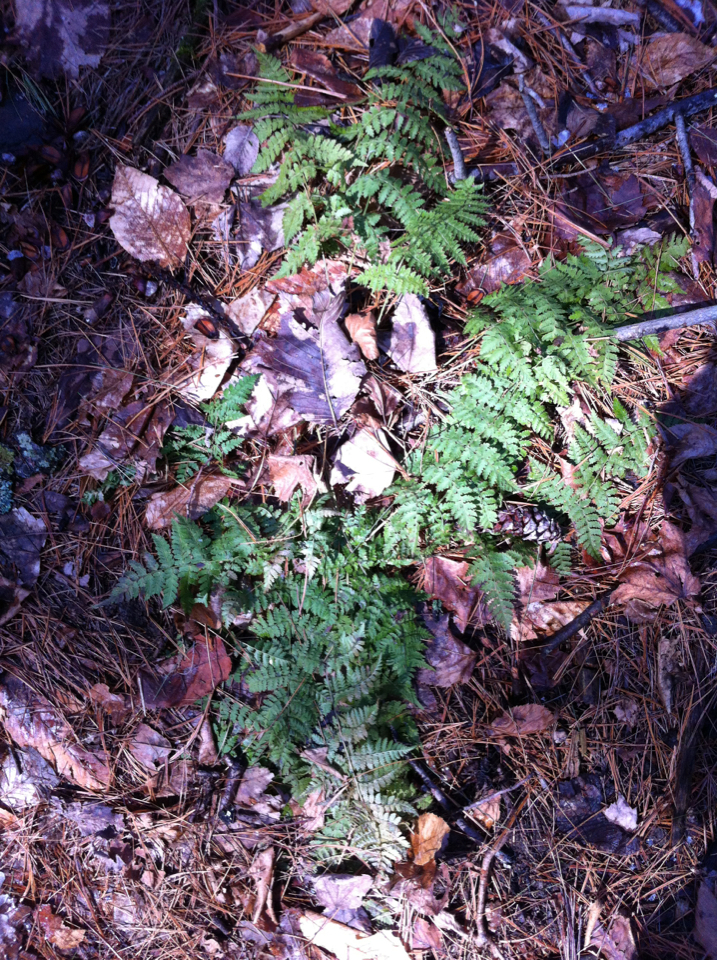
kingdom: Plantae
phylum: Tracheophyta
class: Polypodiopsida
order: Polypodiales
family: Dryopteridaceae
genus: Dryopteris
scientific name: Dryopteris intermedia
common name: Evergreen wood fern
